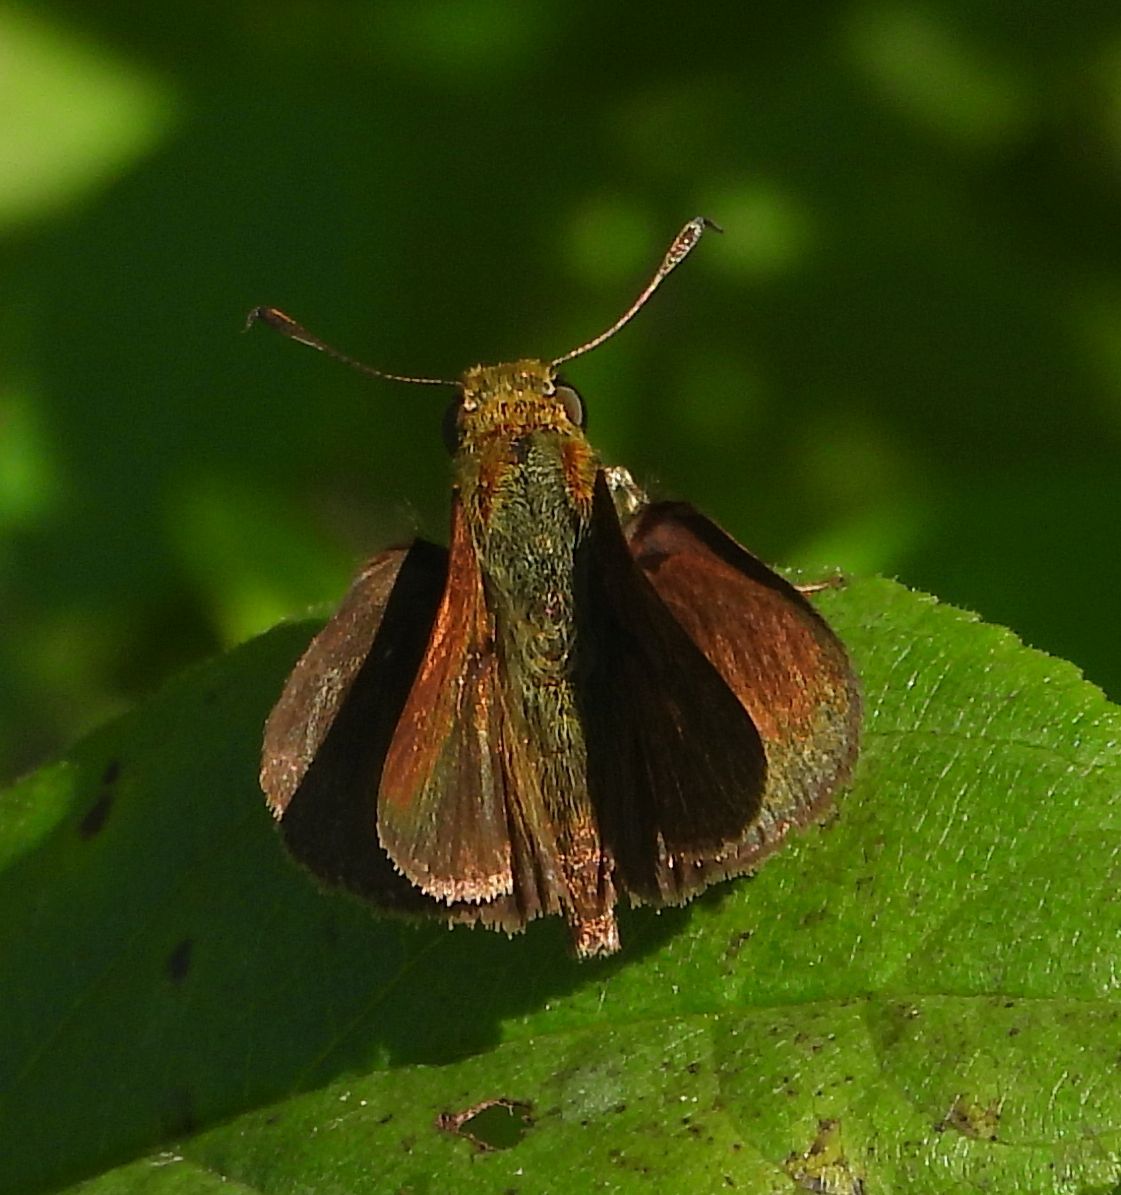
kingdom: Animalia
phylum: Arthropoda
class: Insecta
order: Lepidoptera
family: Hesperiidae
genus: Euphyes
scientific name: Euphyes vestris
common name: Dun skipper
